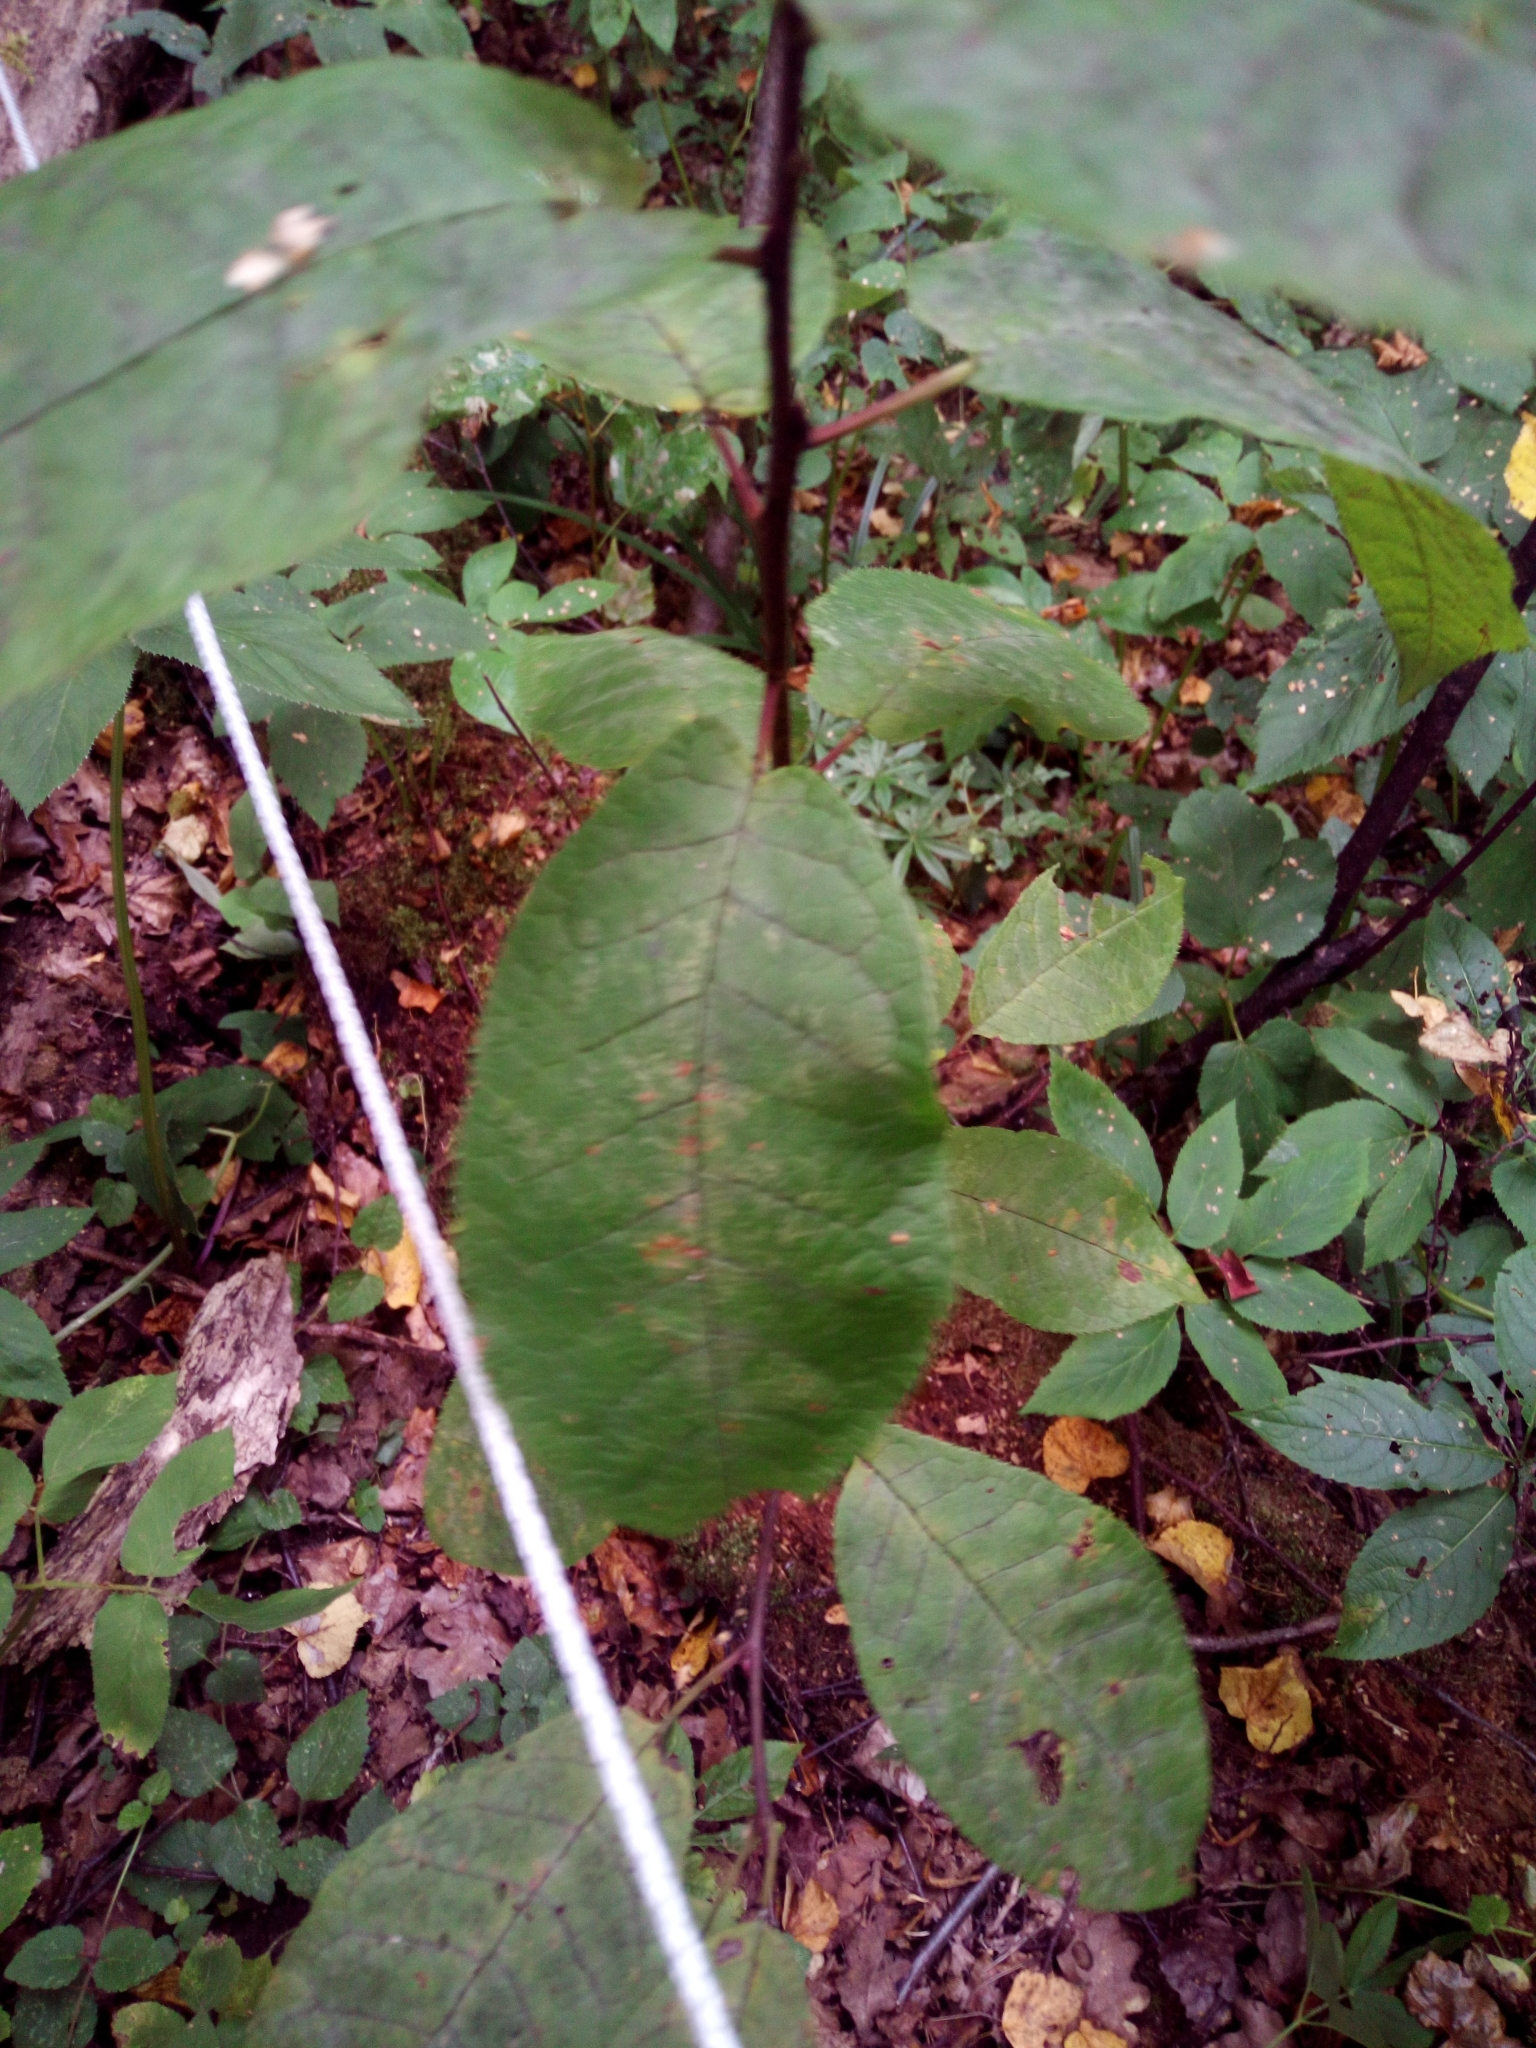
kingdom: Plantae
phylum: Tracheophyta
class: Magnoliopsida
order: Rosales
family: Rosaceae
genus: Prunus
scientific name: Prunus padus
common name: Bird cherry
